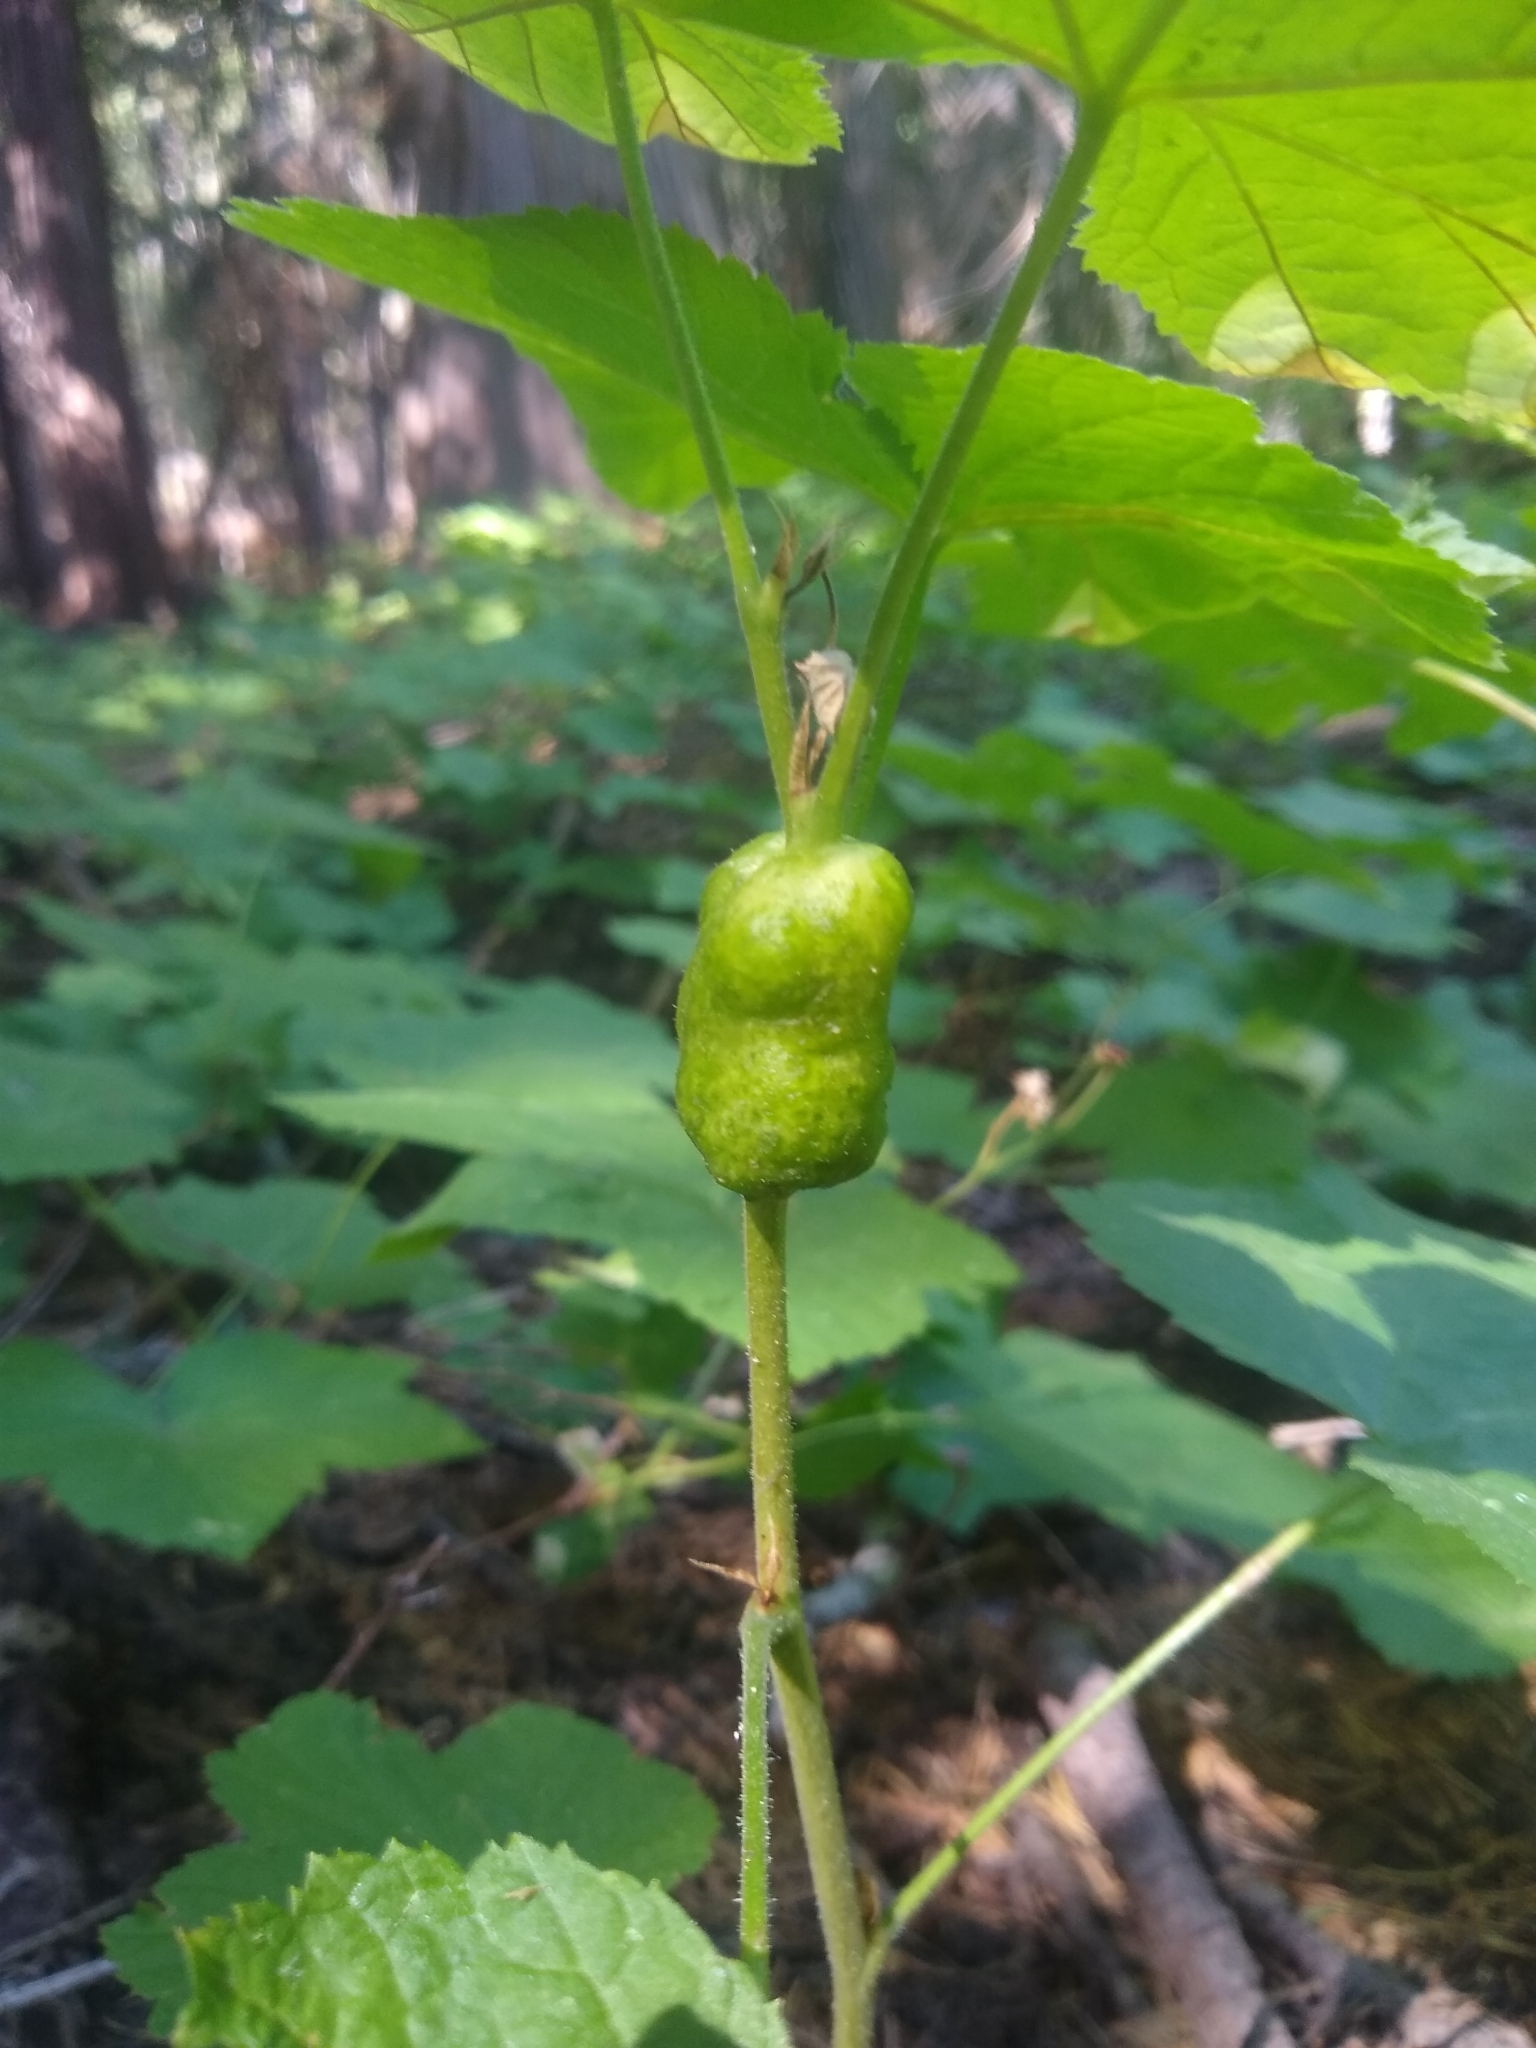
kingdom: Animalia
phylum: Arthropoda
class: Insecta
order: Hymenoptera
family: Cynipidae
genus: Diastrophus
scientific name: Diastrophus
